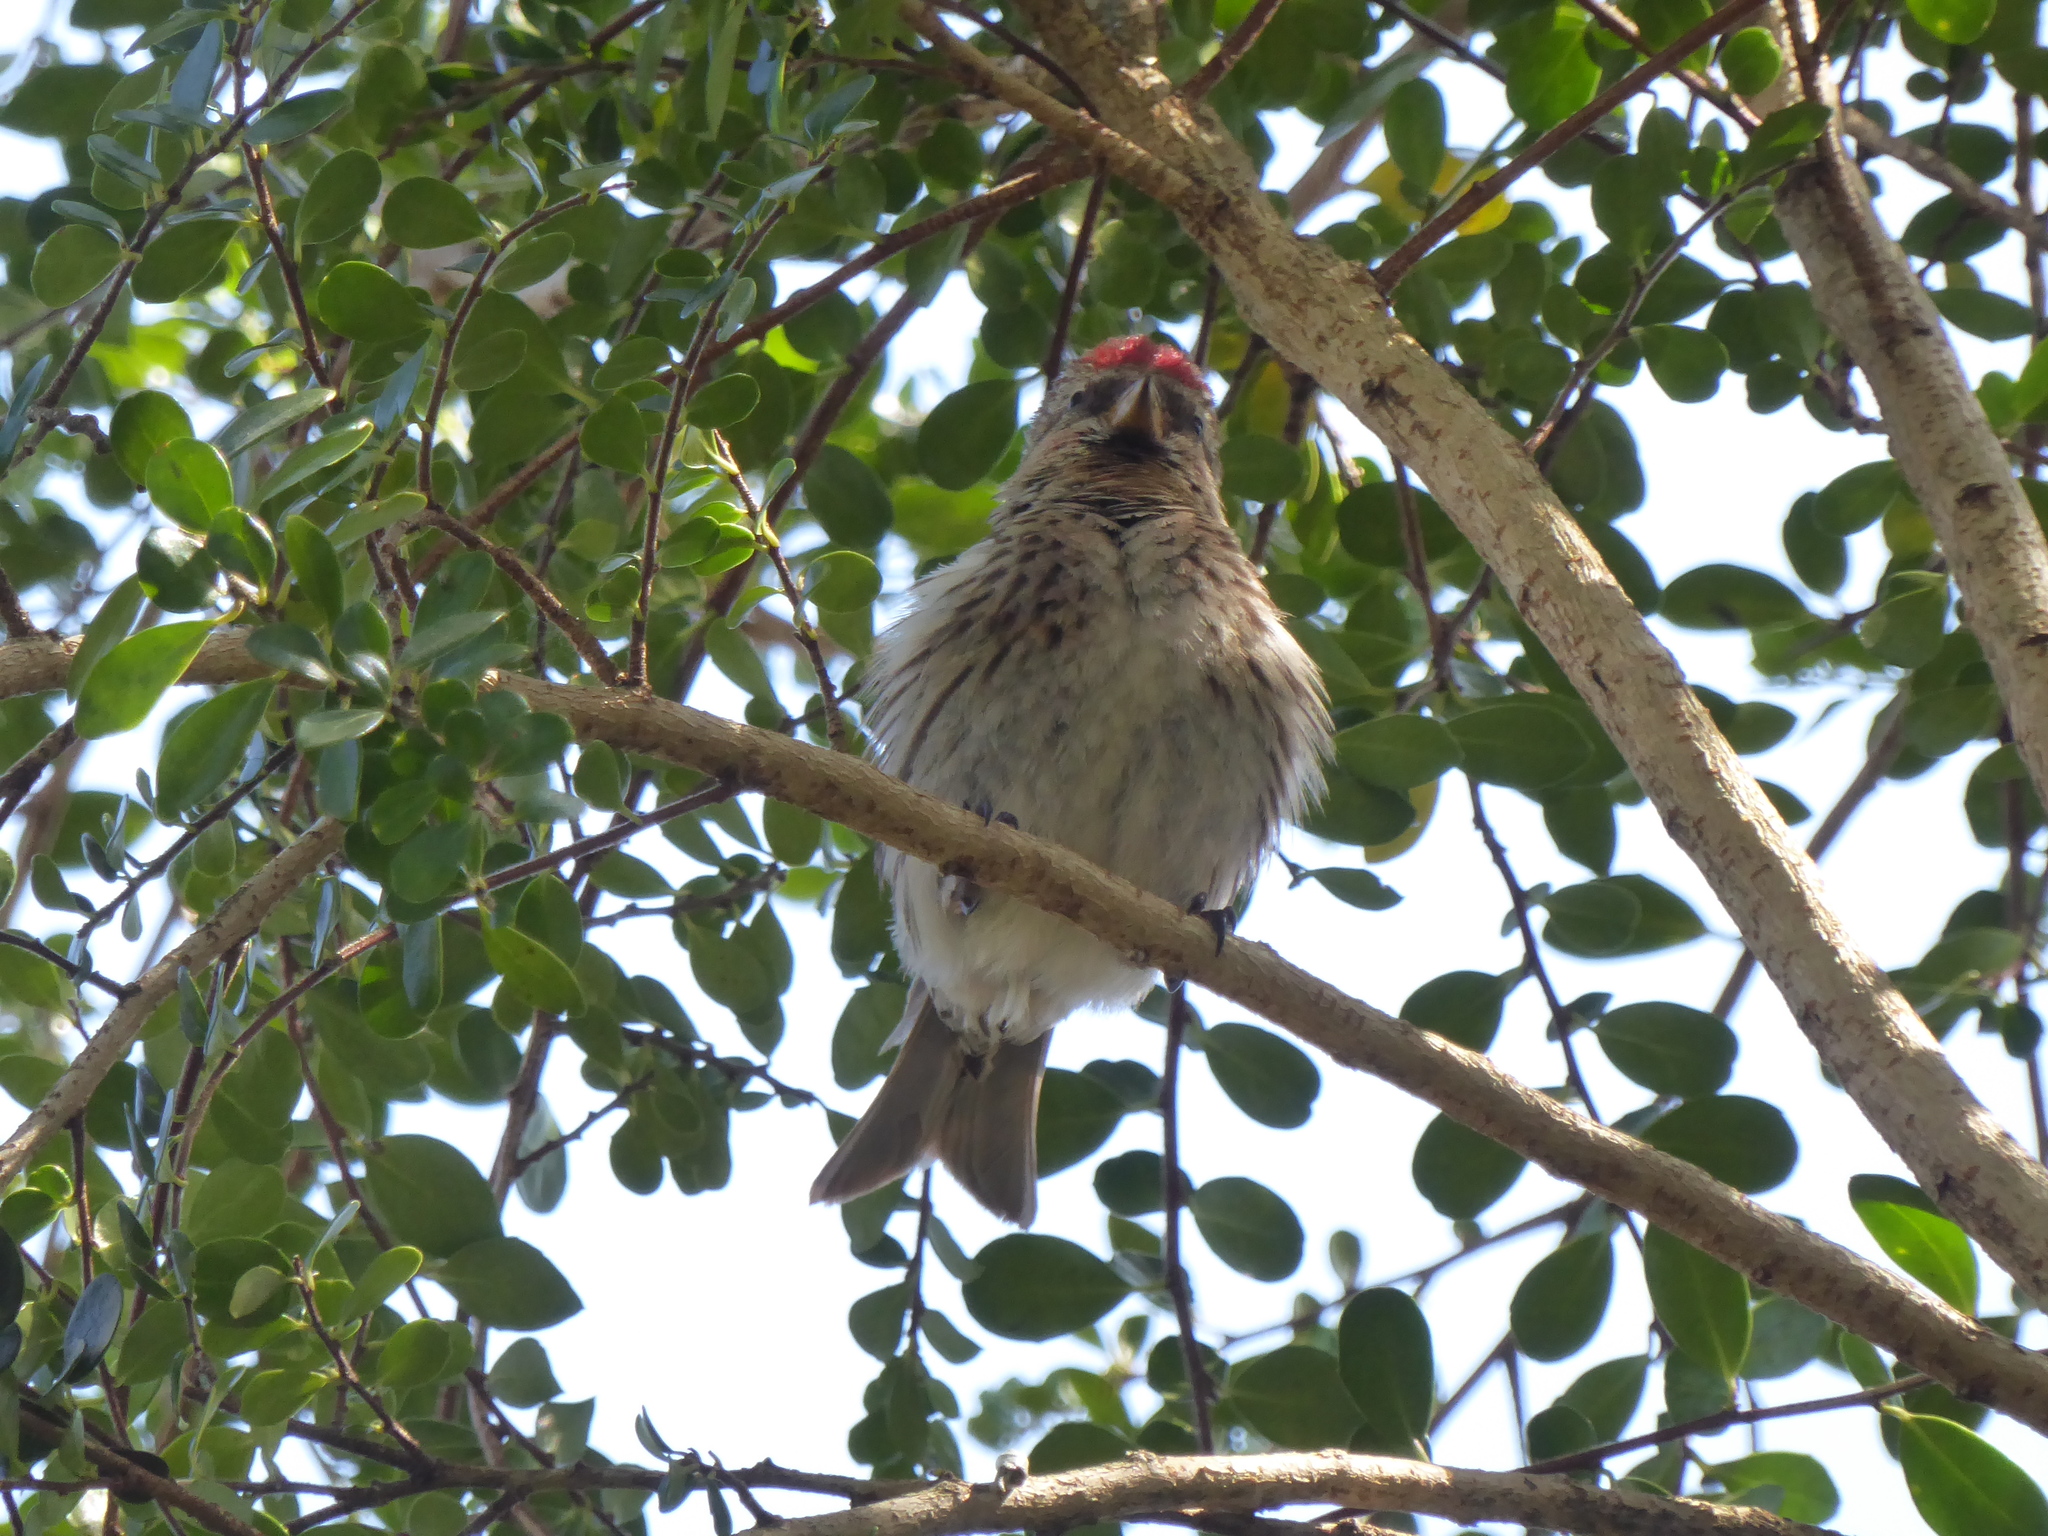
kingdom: Animalia
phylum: Chordata
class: Aves
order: Passeriformes
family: Fringillidae
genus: Acanthis
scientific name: Acanthis flammea
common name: Common redpoll
